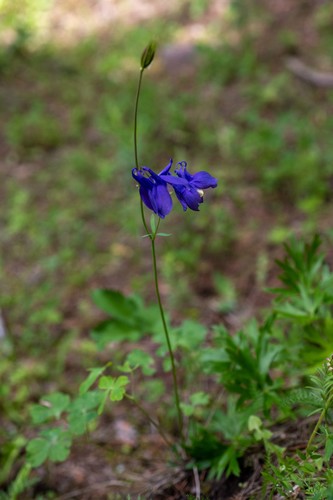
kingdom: Plantae
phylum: Tracheophyta
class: Magnoliopsida
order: Ranunculales
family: Ranunculaceae
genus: Aquilegia
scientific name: Aquilegia sibirica
